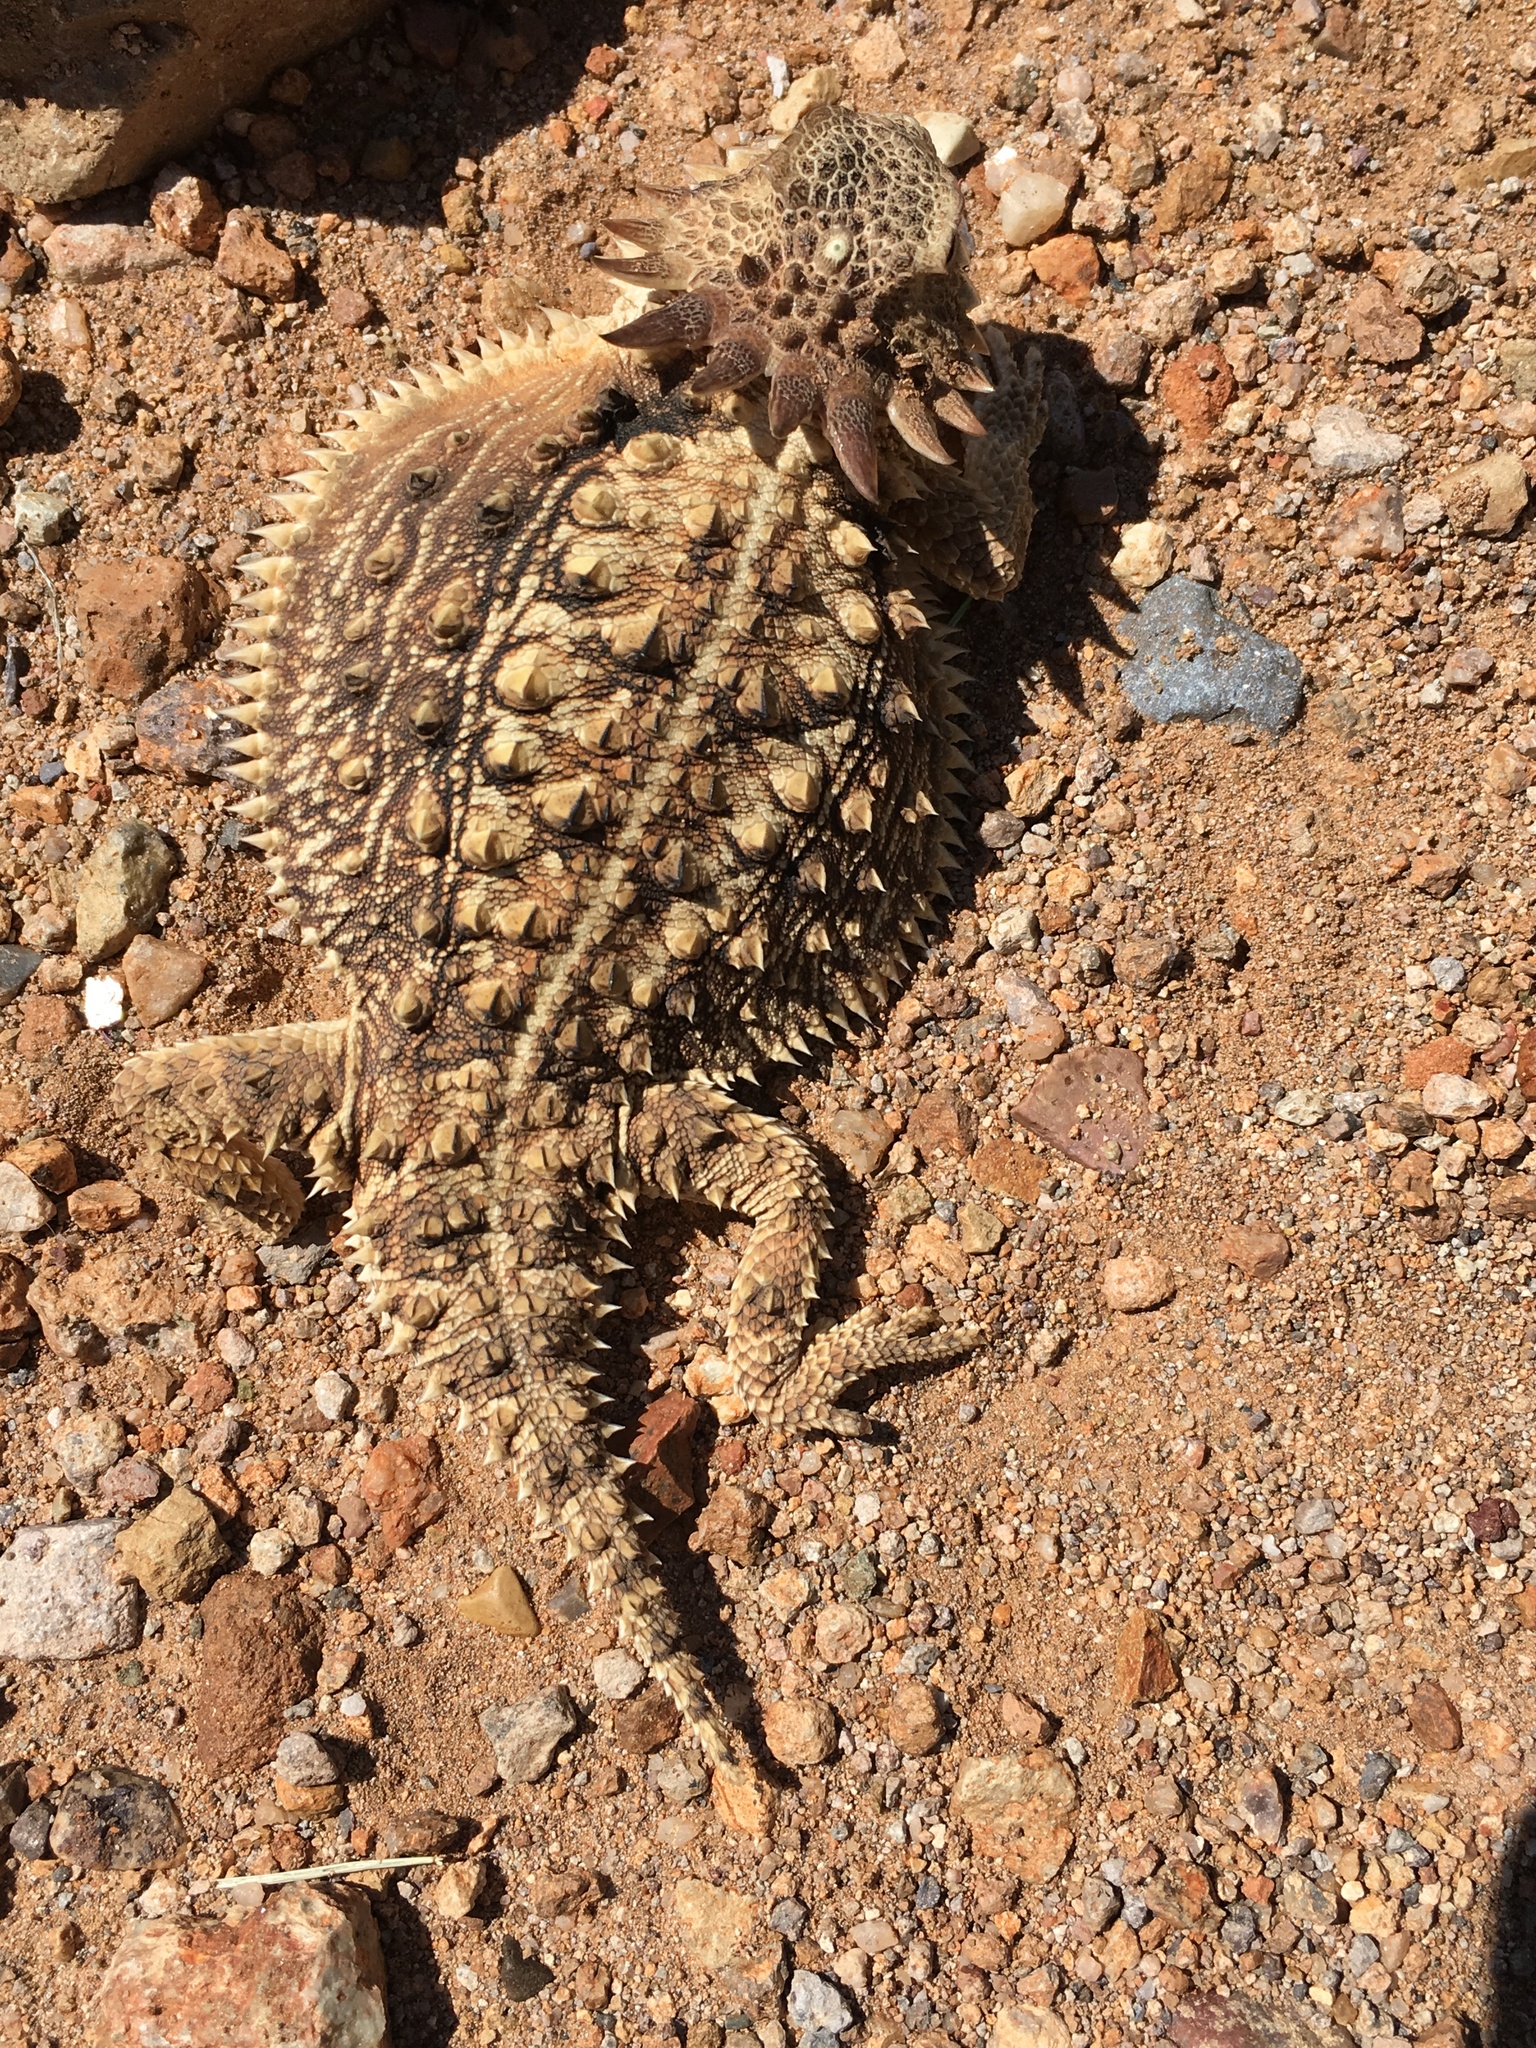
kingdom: Animalia
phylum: Chordata
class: Squamata
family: Phrynosomatidae
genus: Phrynosoma
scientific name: Phrynosoma solare
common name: Regal horned lizard
